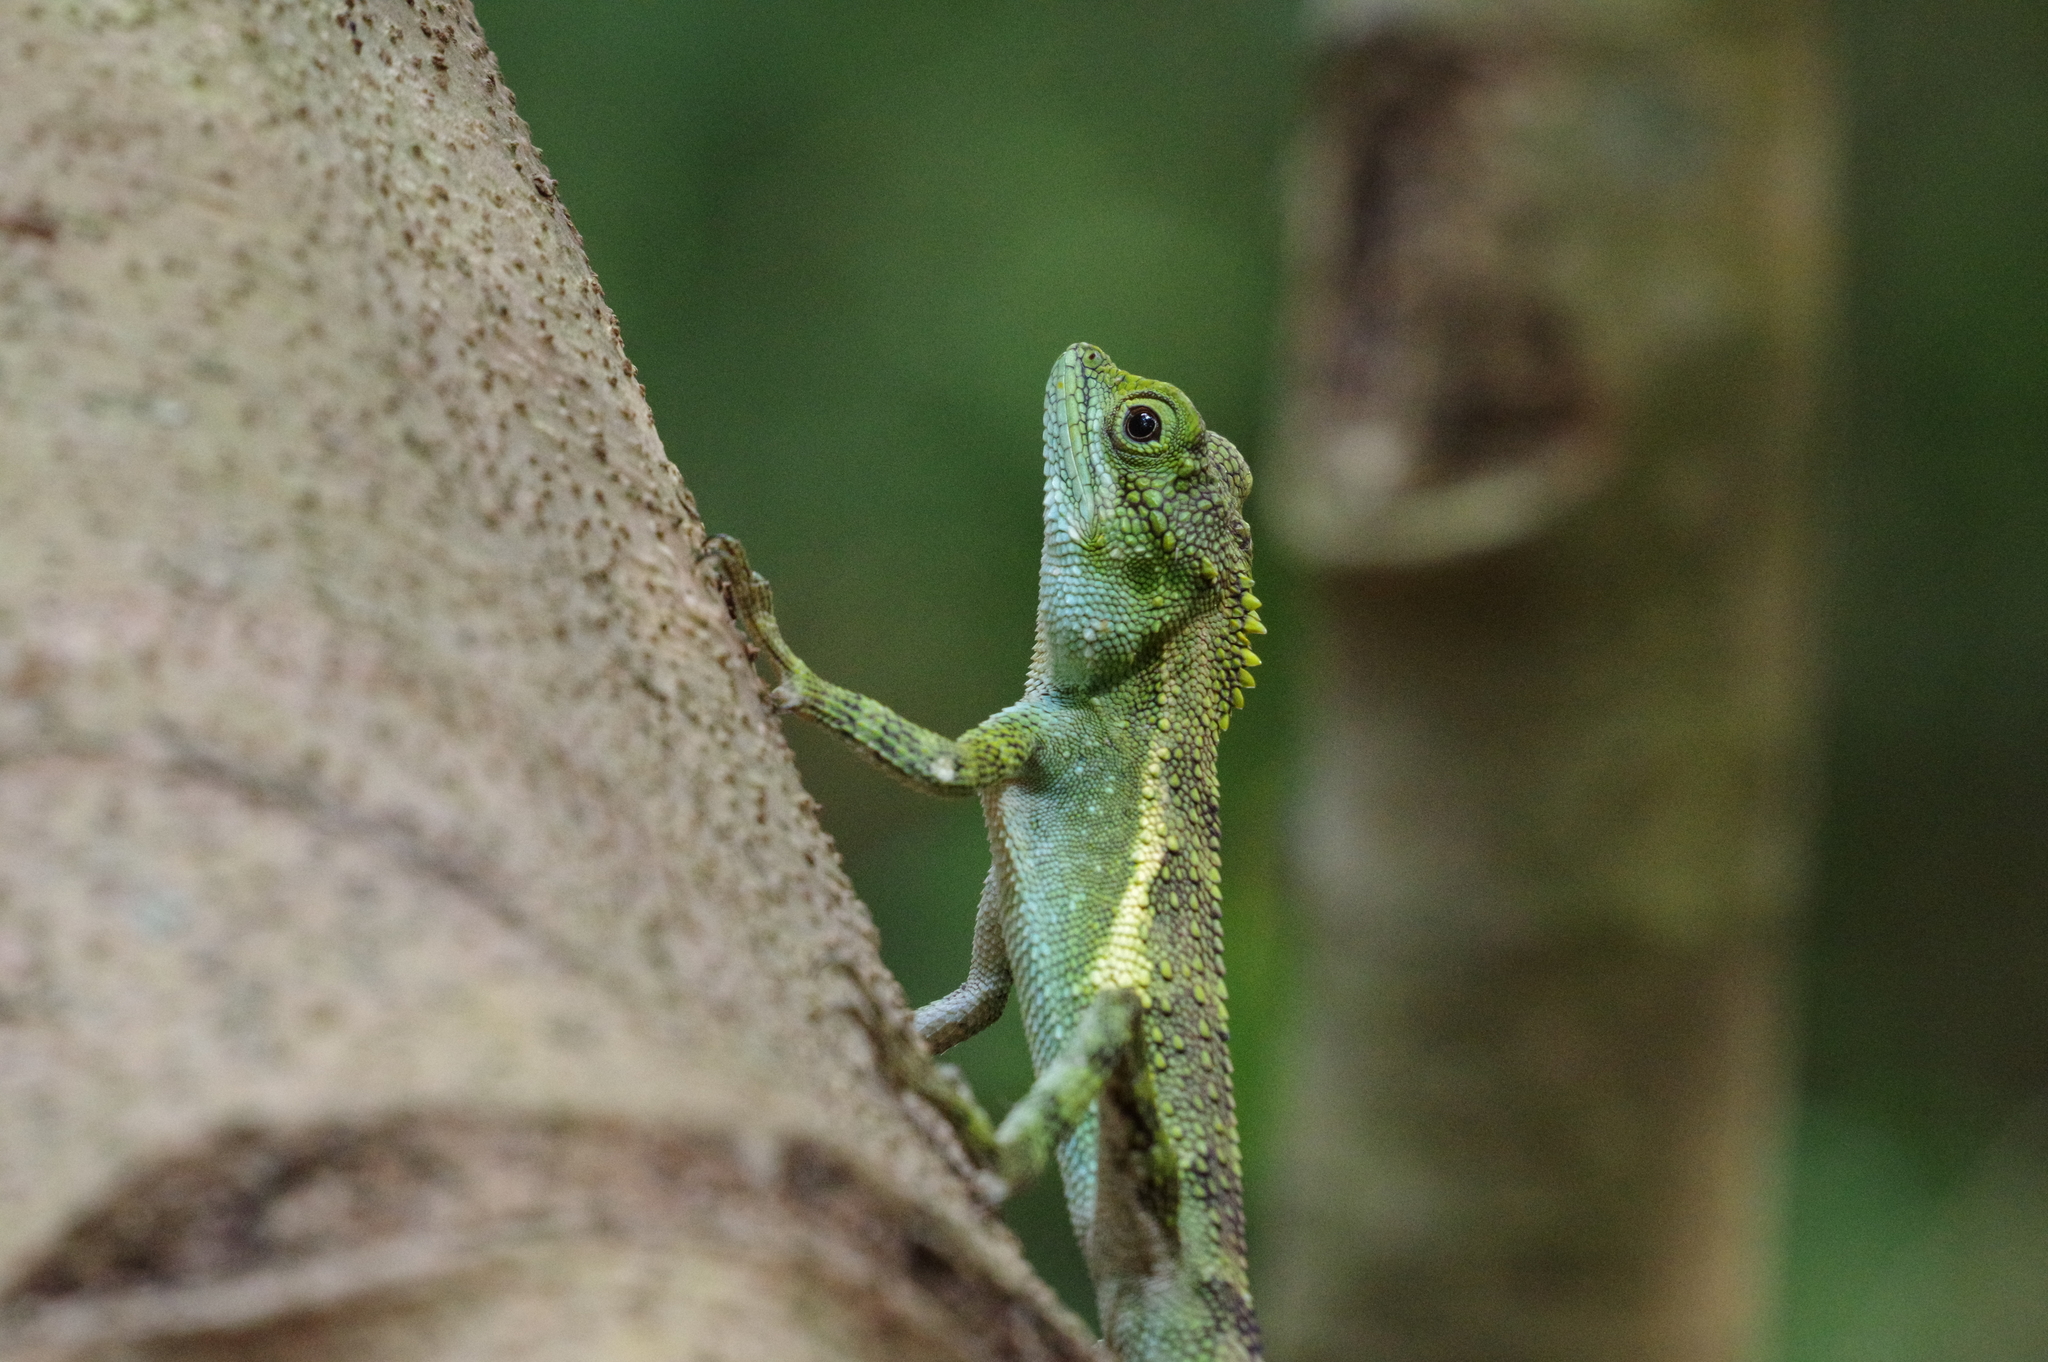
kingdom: Fungi
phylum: Basidiomycota
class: Agaricomycetes
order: Boletales
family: Diplocystidiaceae
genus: Diploderma
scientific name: Diploderma polygonatum
